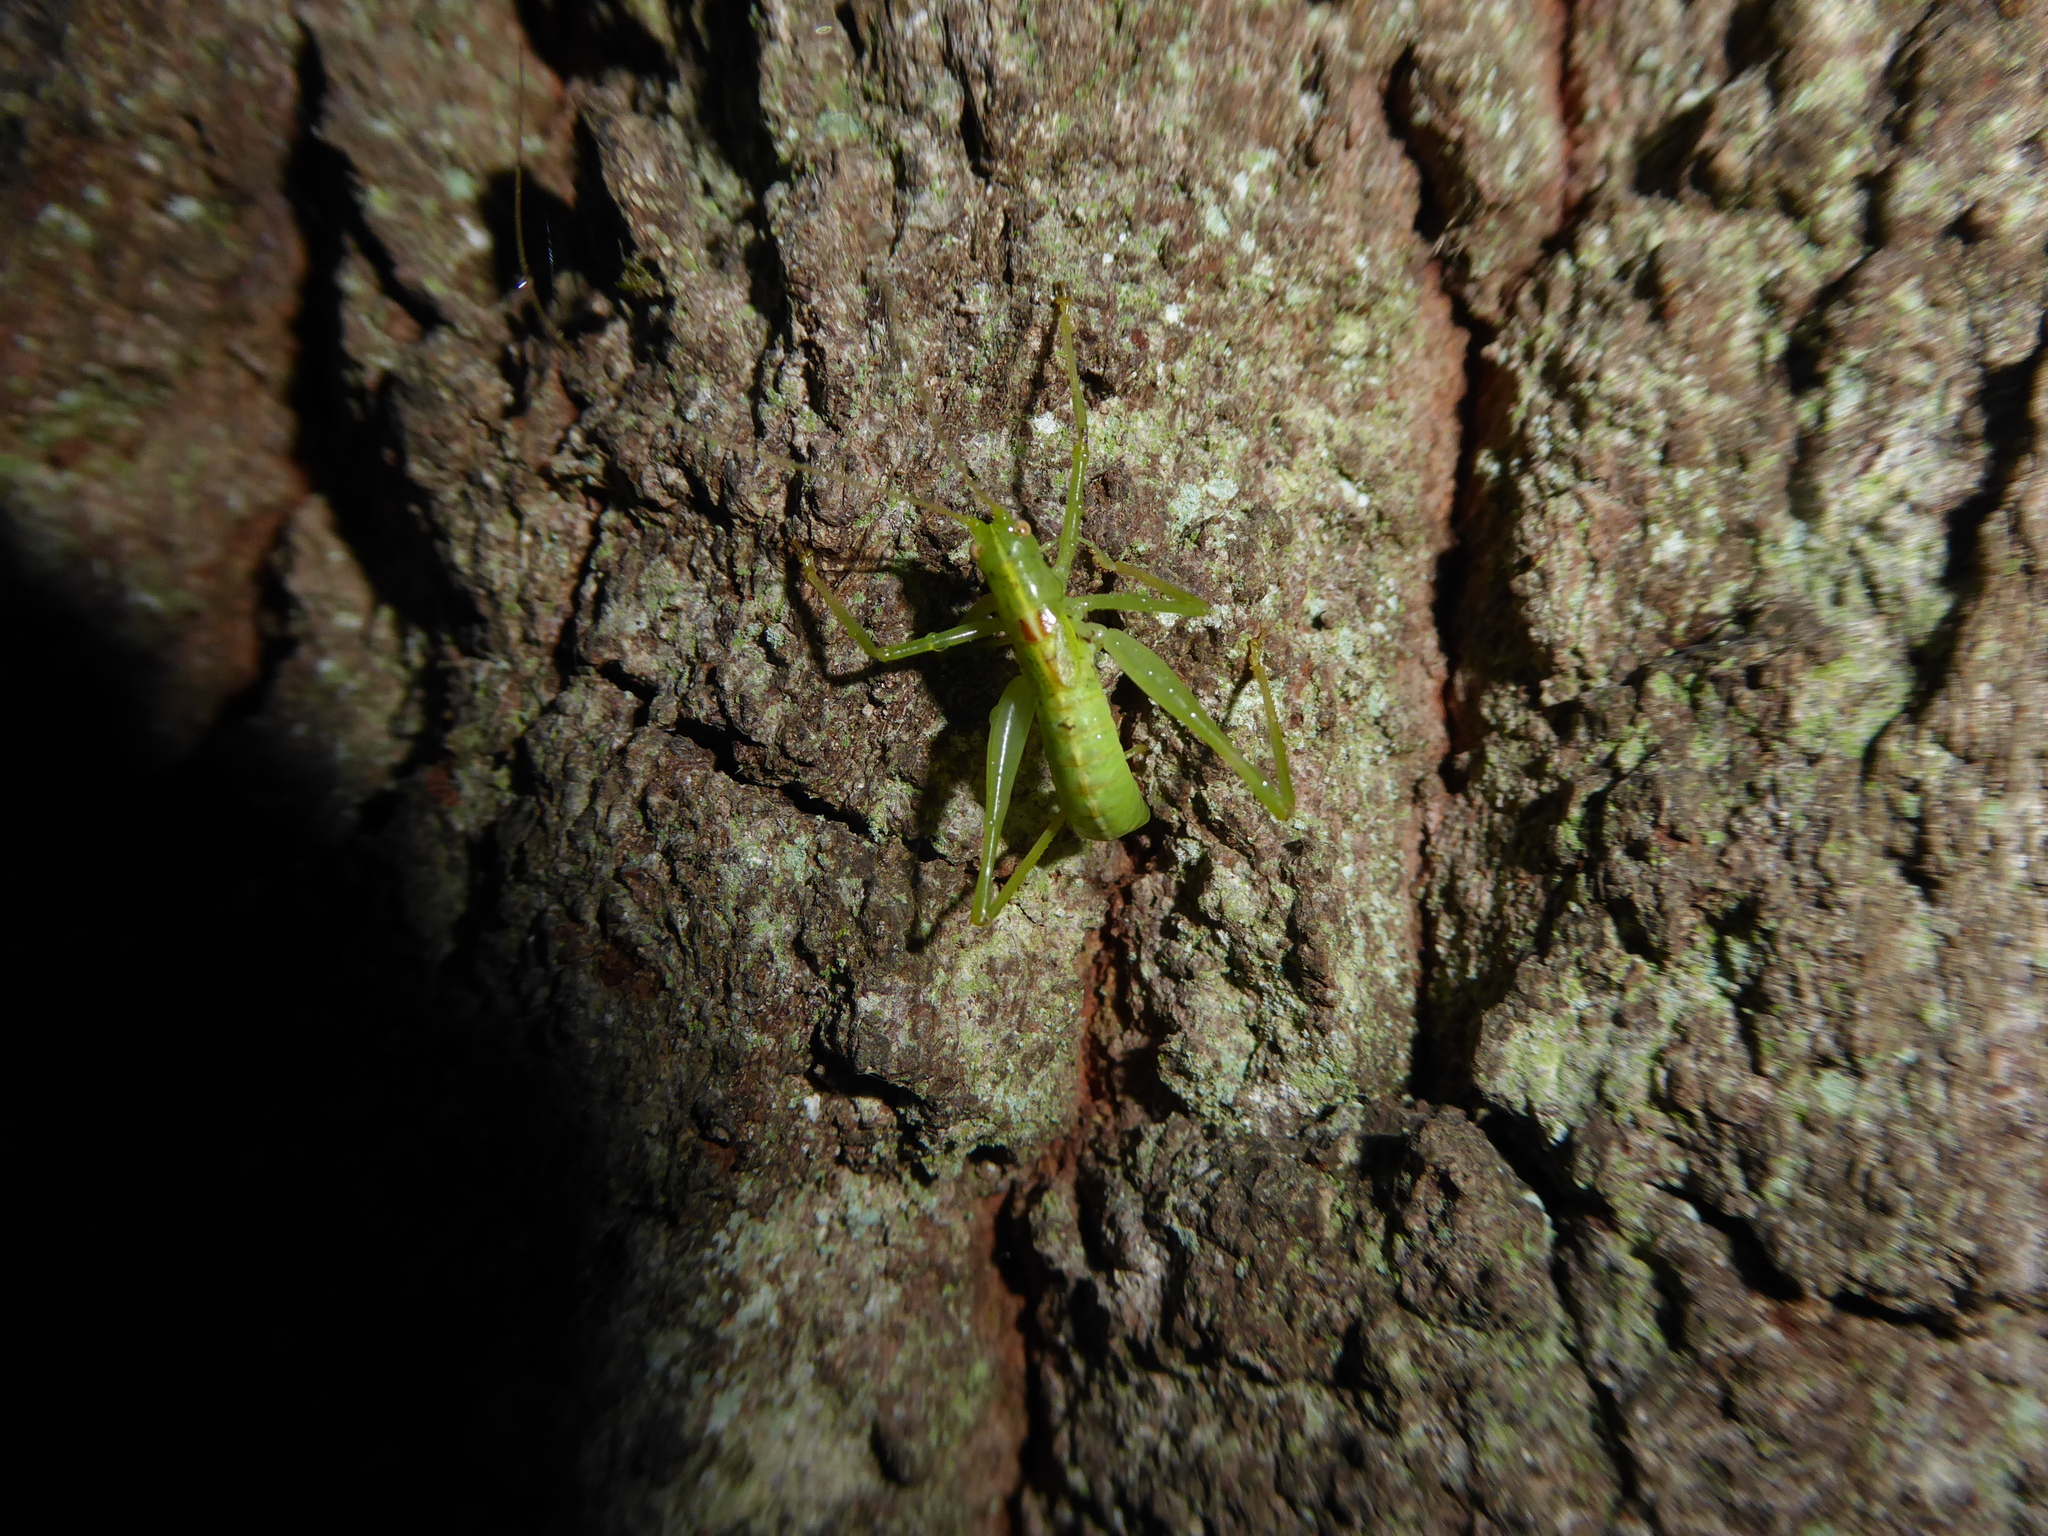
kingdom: Animalia
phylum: Arthropoda
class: Insecta
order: Orthoptera
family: Tettigoniidae
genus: Meconema
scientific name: Meconema meridionale
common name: Southern oak bush-cricket
